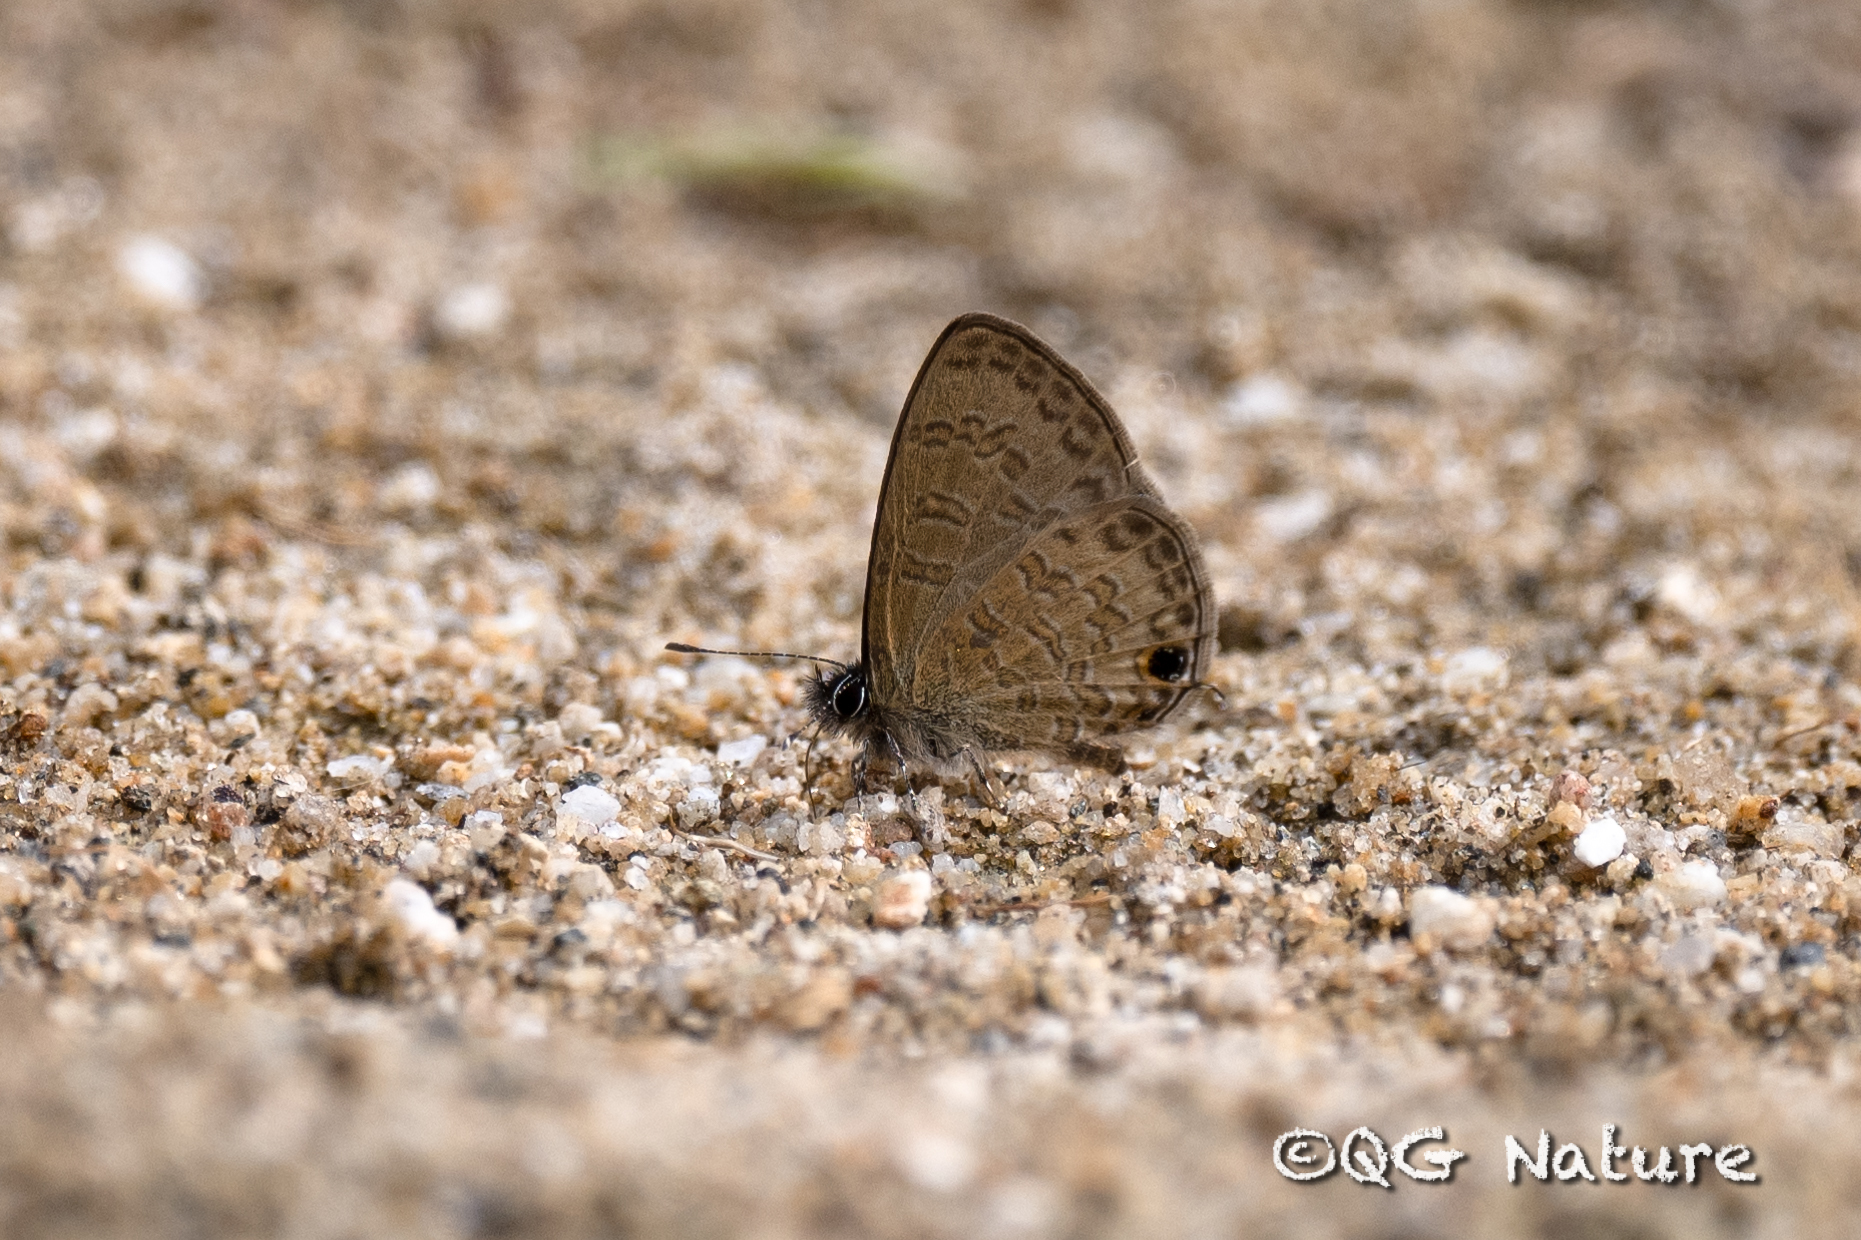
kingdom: Animalia
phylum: Arthropoda
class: Insecta
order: Lepidoptera
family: Lycaenidae
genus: Prosotas
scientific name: Prosotas nora
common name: Common line blue
